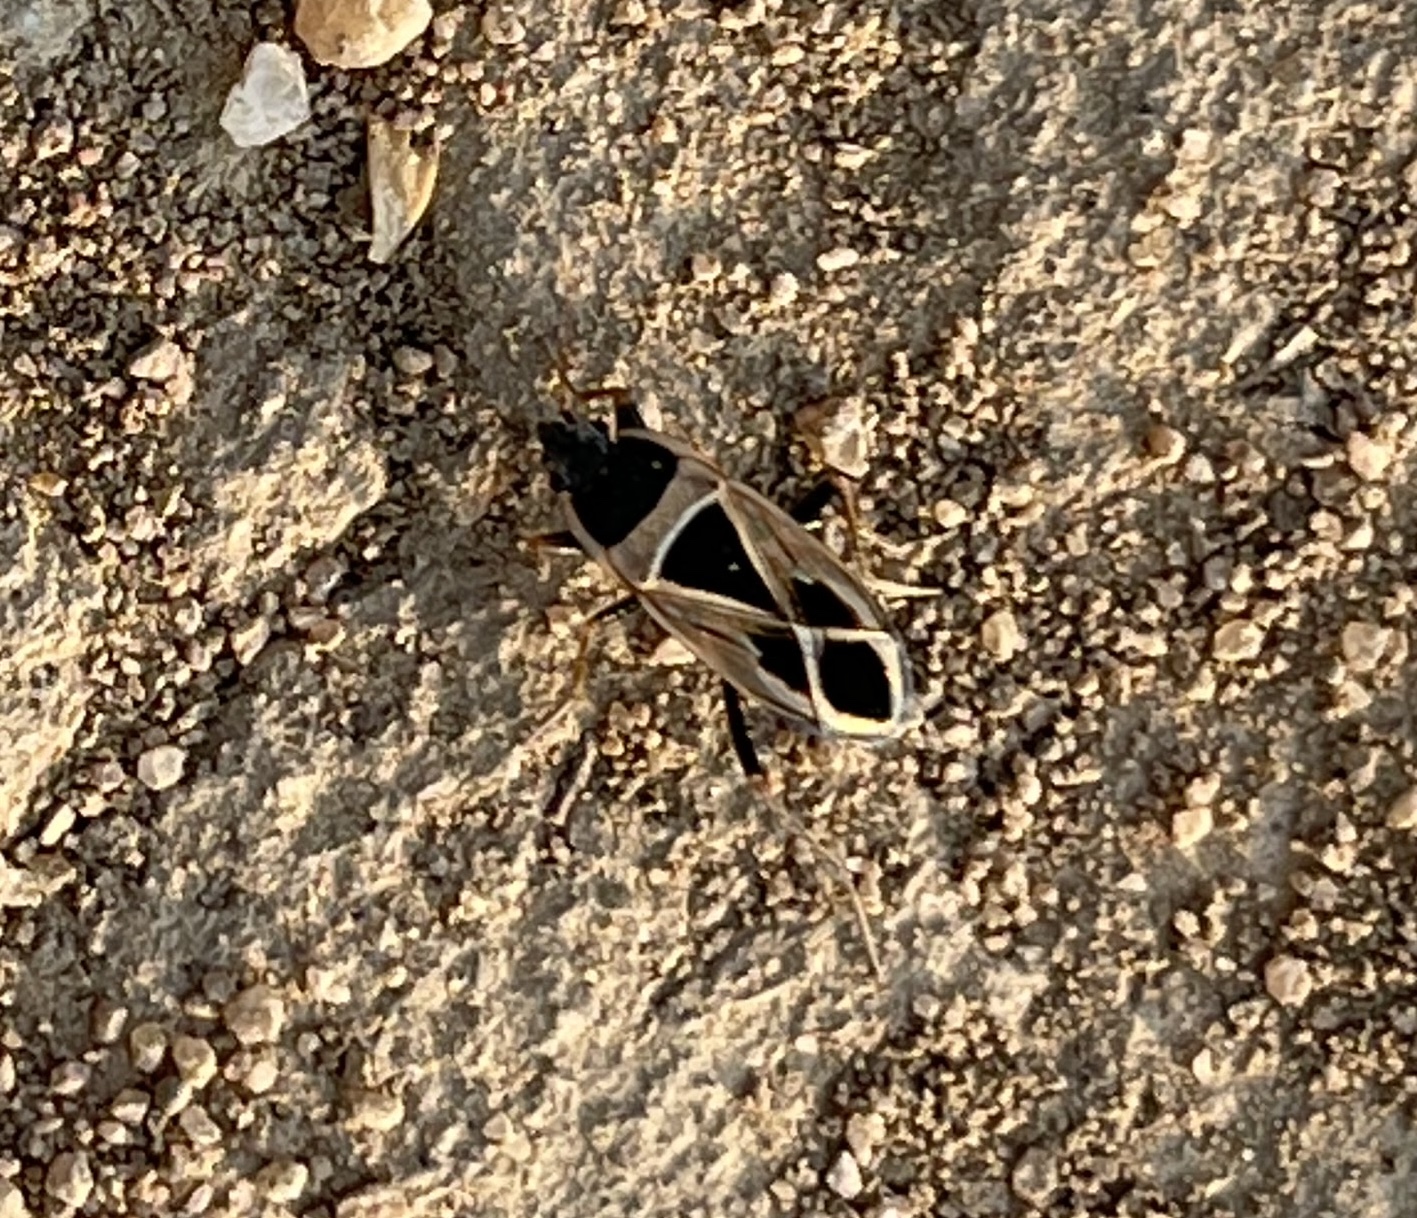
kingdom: Animalia
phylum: Arthropoda
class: Insecta
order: Hemiptera
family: Rhyparochromidae
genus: Xanthochilus
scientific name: Xanthochilus saturnius
